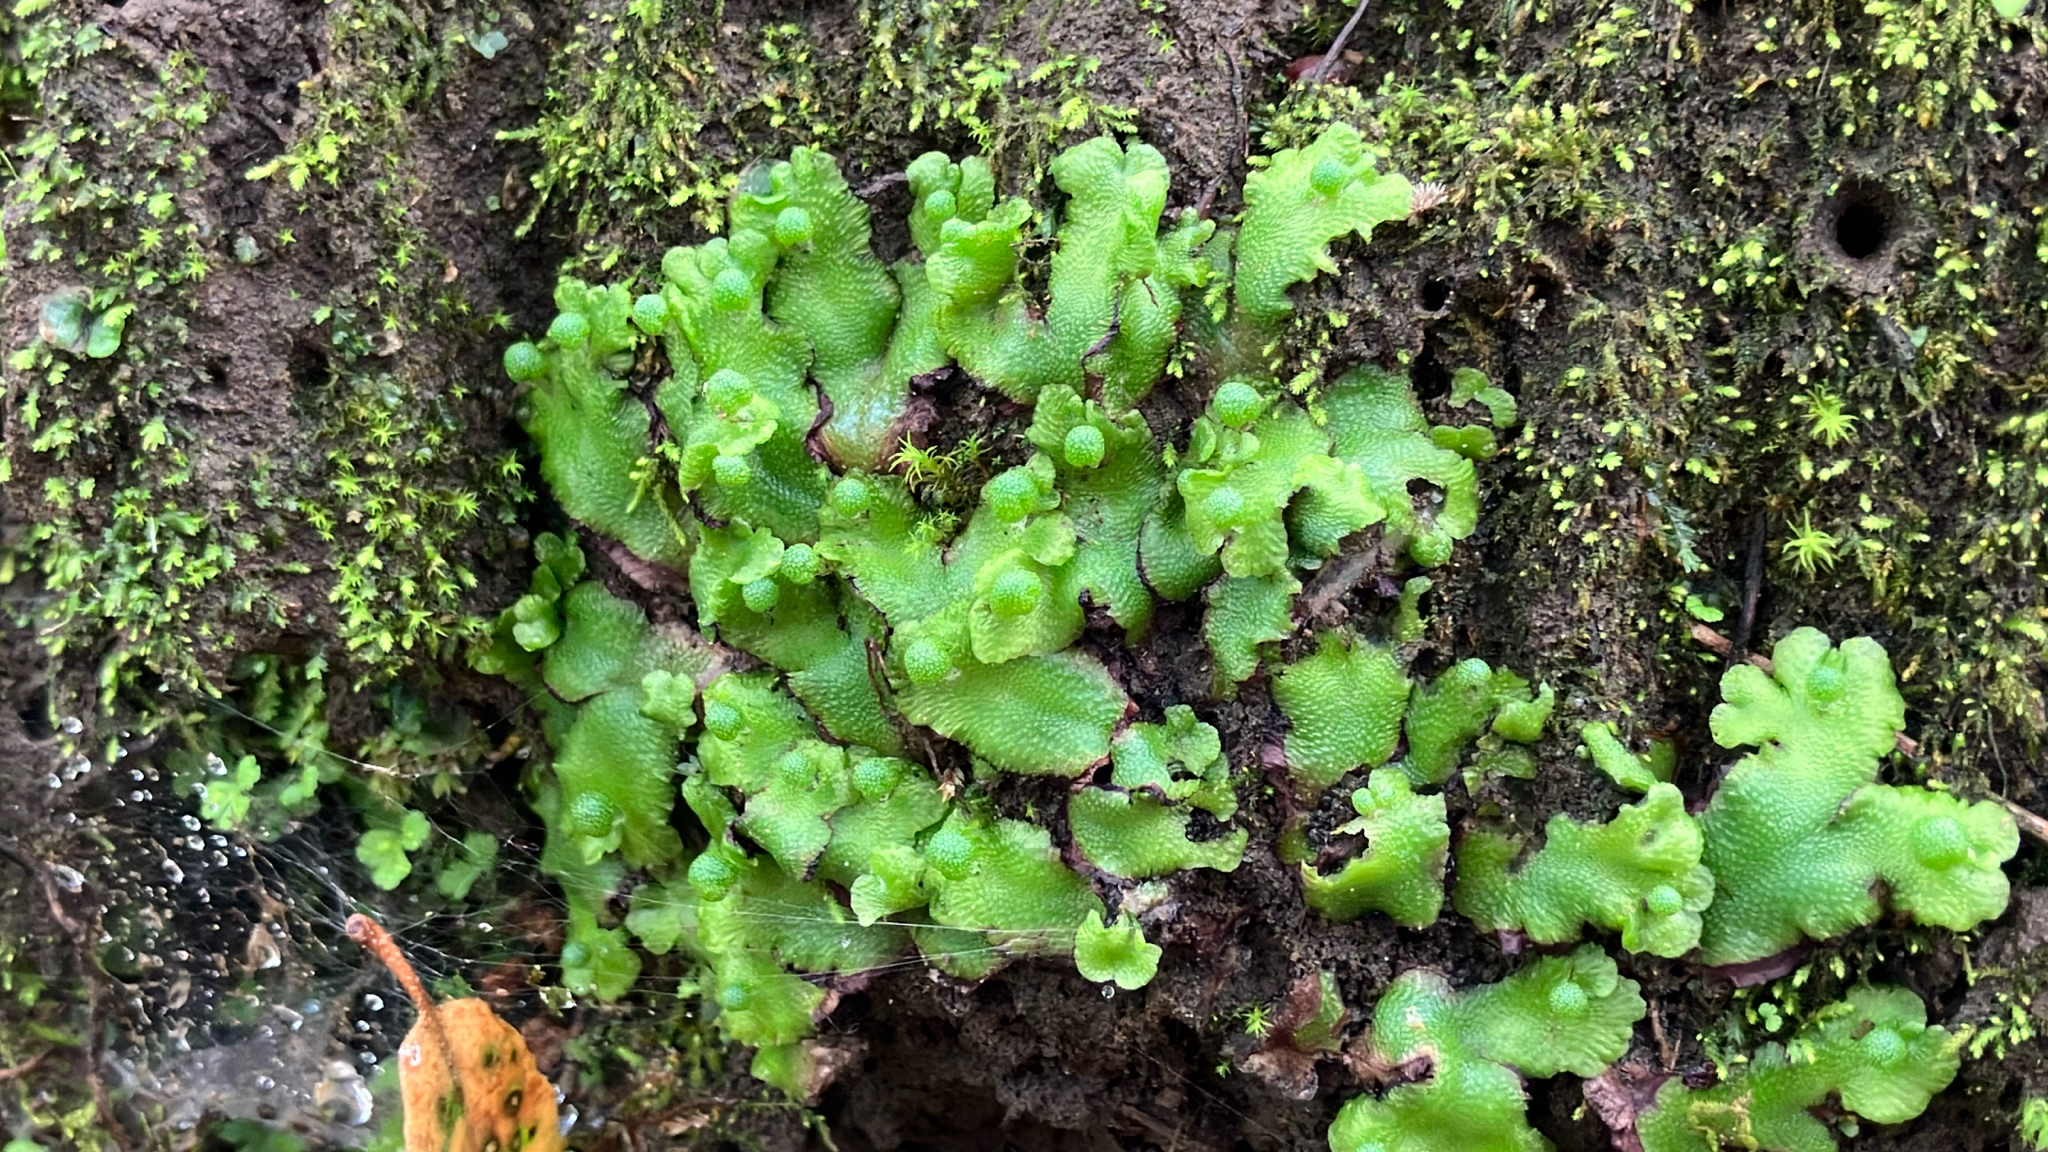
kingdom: Plantae
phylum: Marchantiophyta
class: Marchantiopsida
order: Marchantiales
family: Aytoniaceae
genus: Asterella
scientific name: Asterella californica
